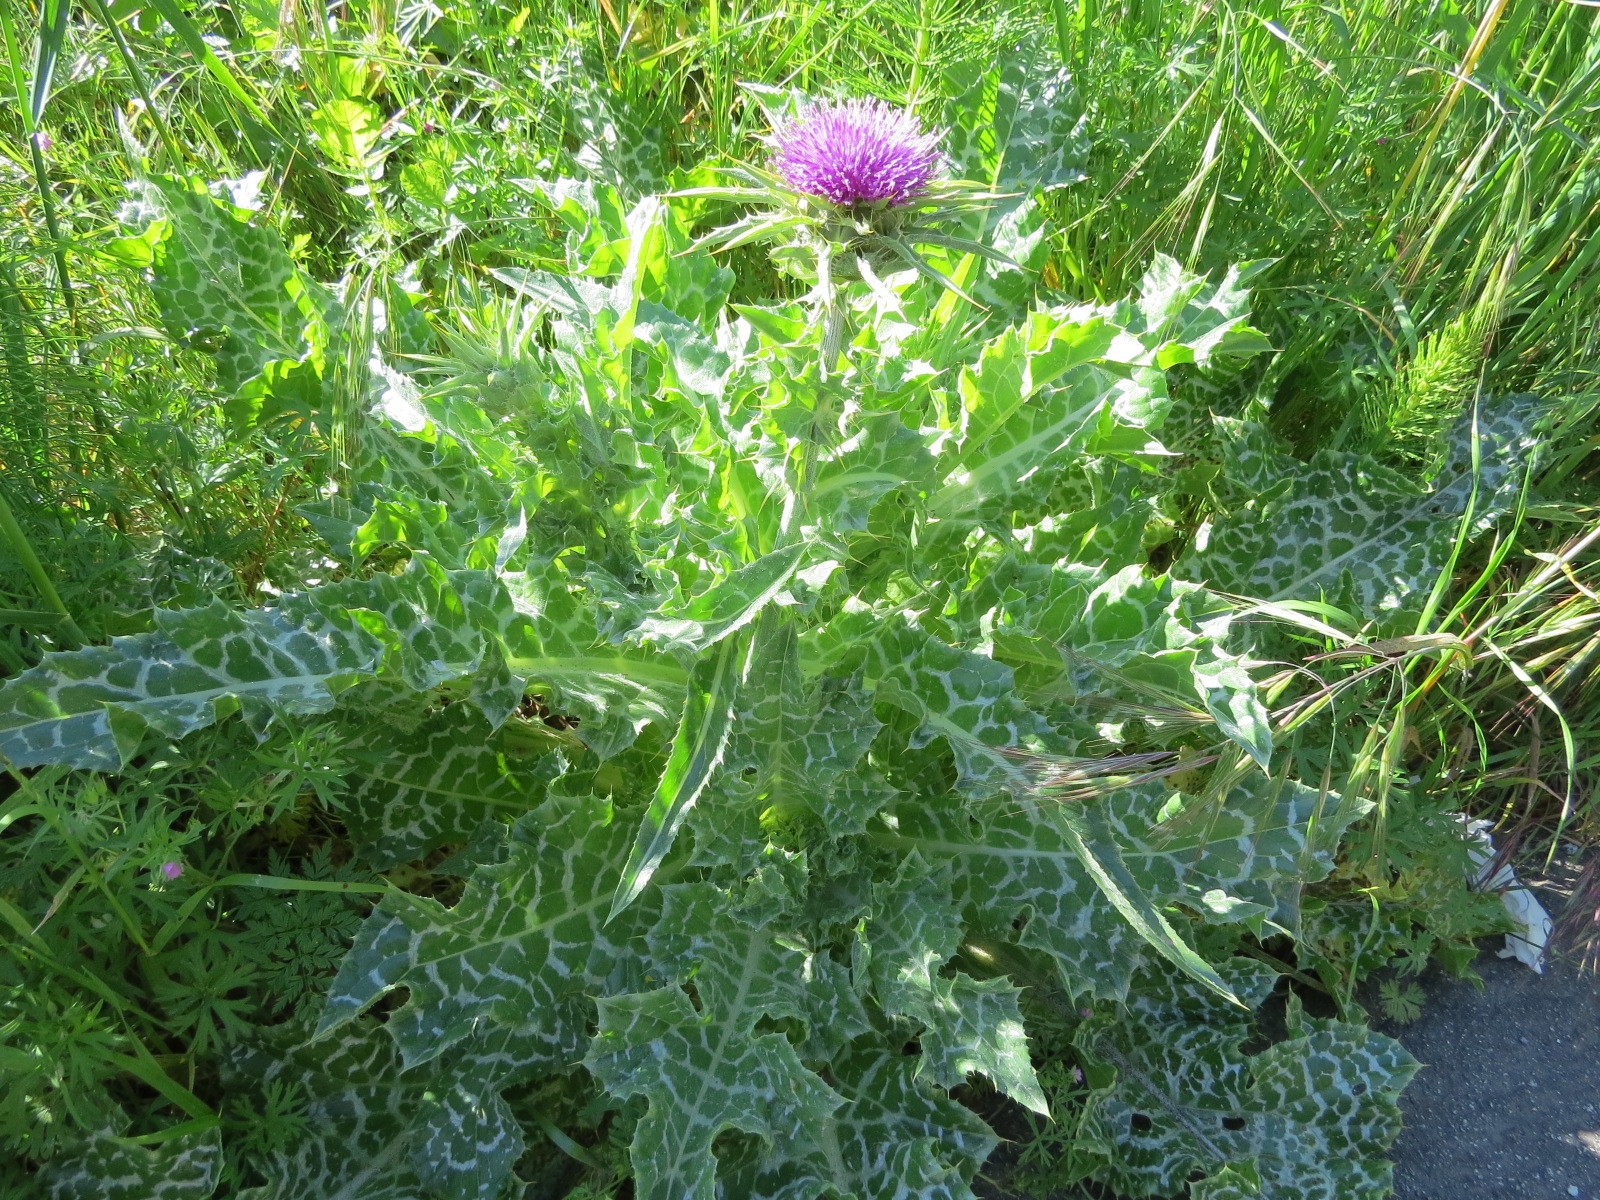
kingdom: Plantae
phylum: Tracheophyta
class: Magnoliopsida
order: Asterales
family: Asteraceae
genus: Silybum
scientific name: Silybum marianum
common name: Milk thistle
